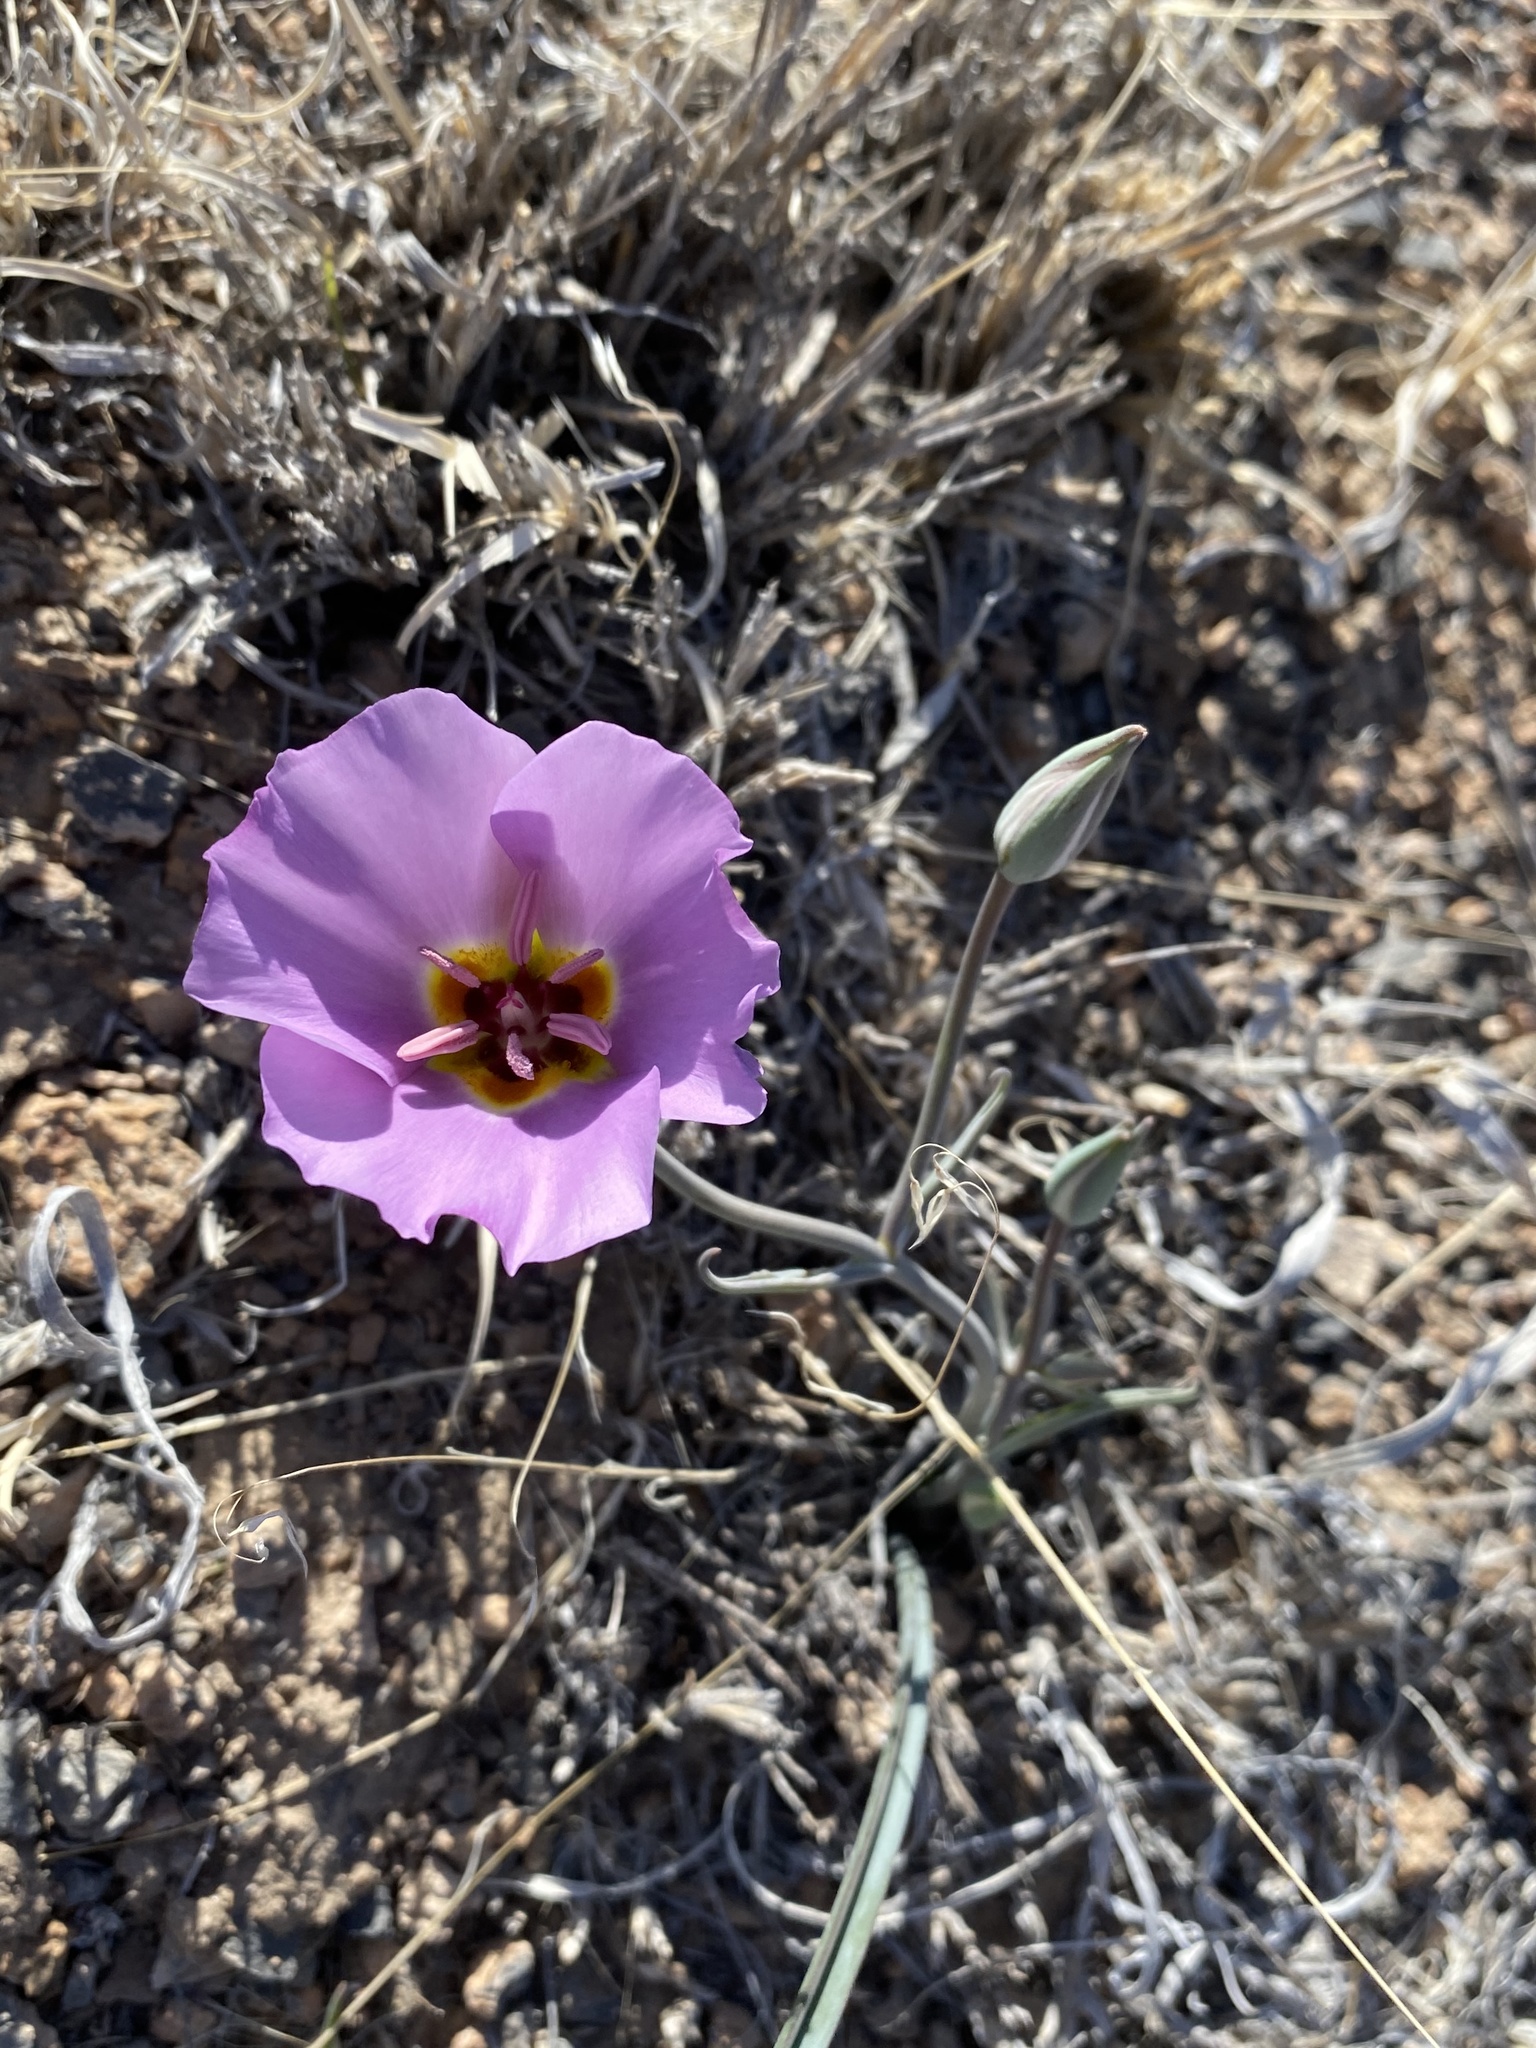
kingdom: Plantae
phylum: Tracheophyta
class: Liliopsida
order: Liliales
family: Liliaceae
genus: Calochortus
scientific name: Calochortus flexuosus
